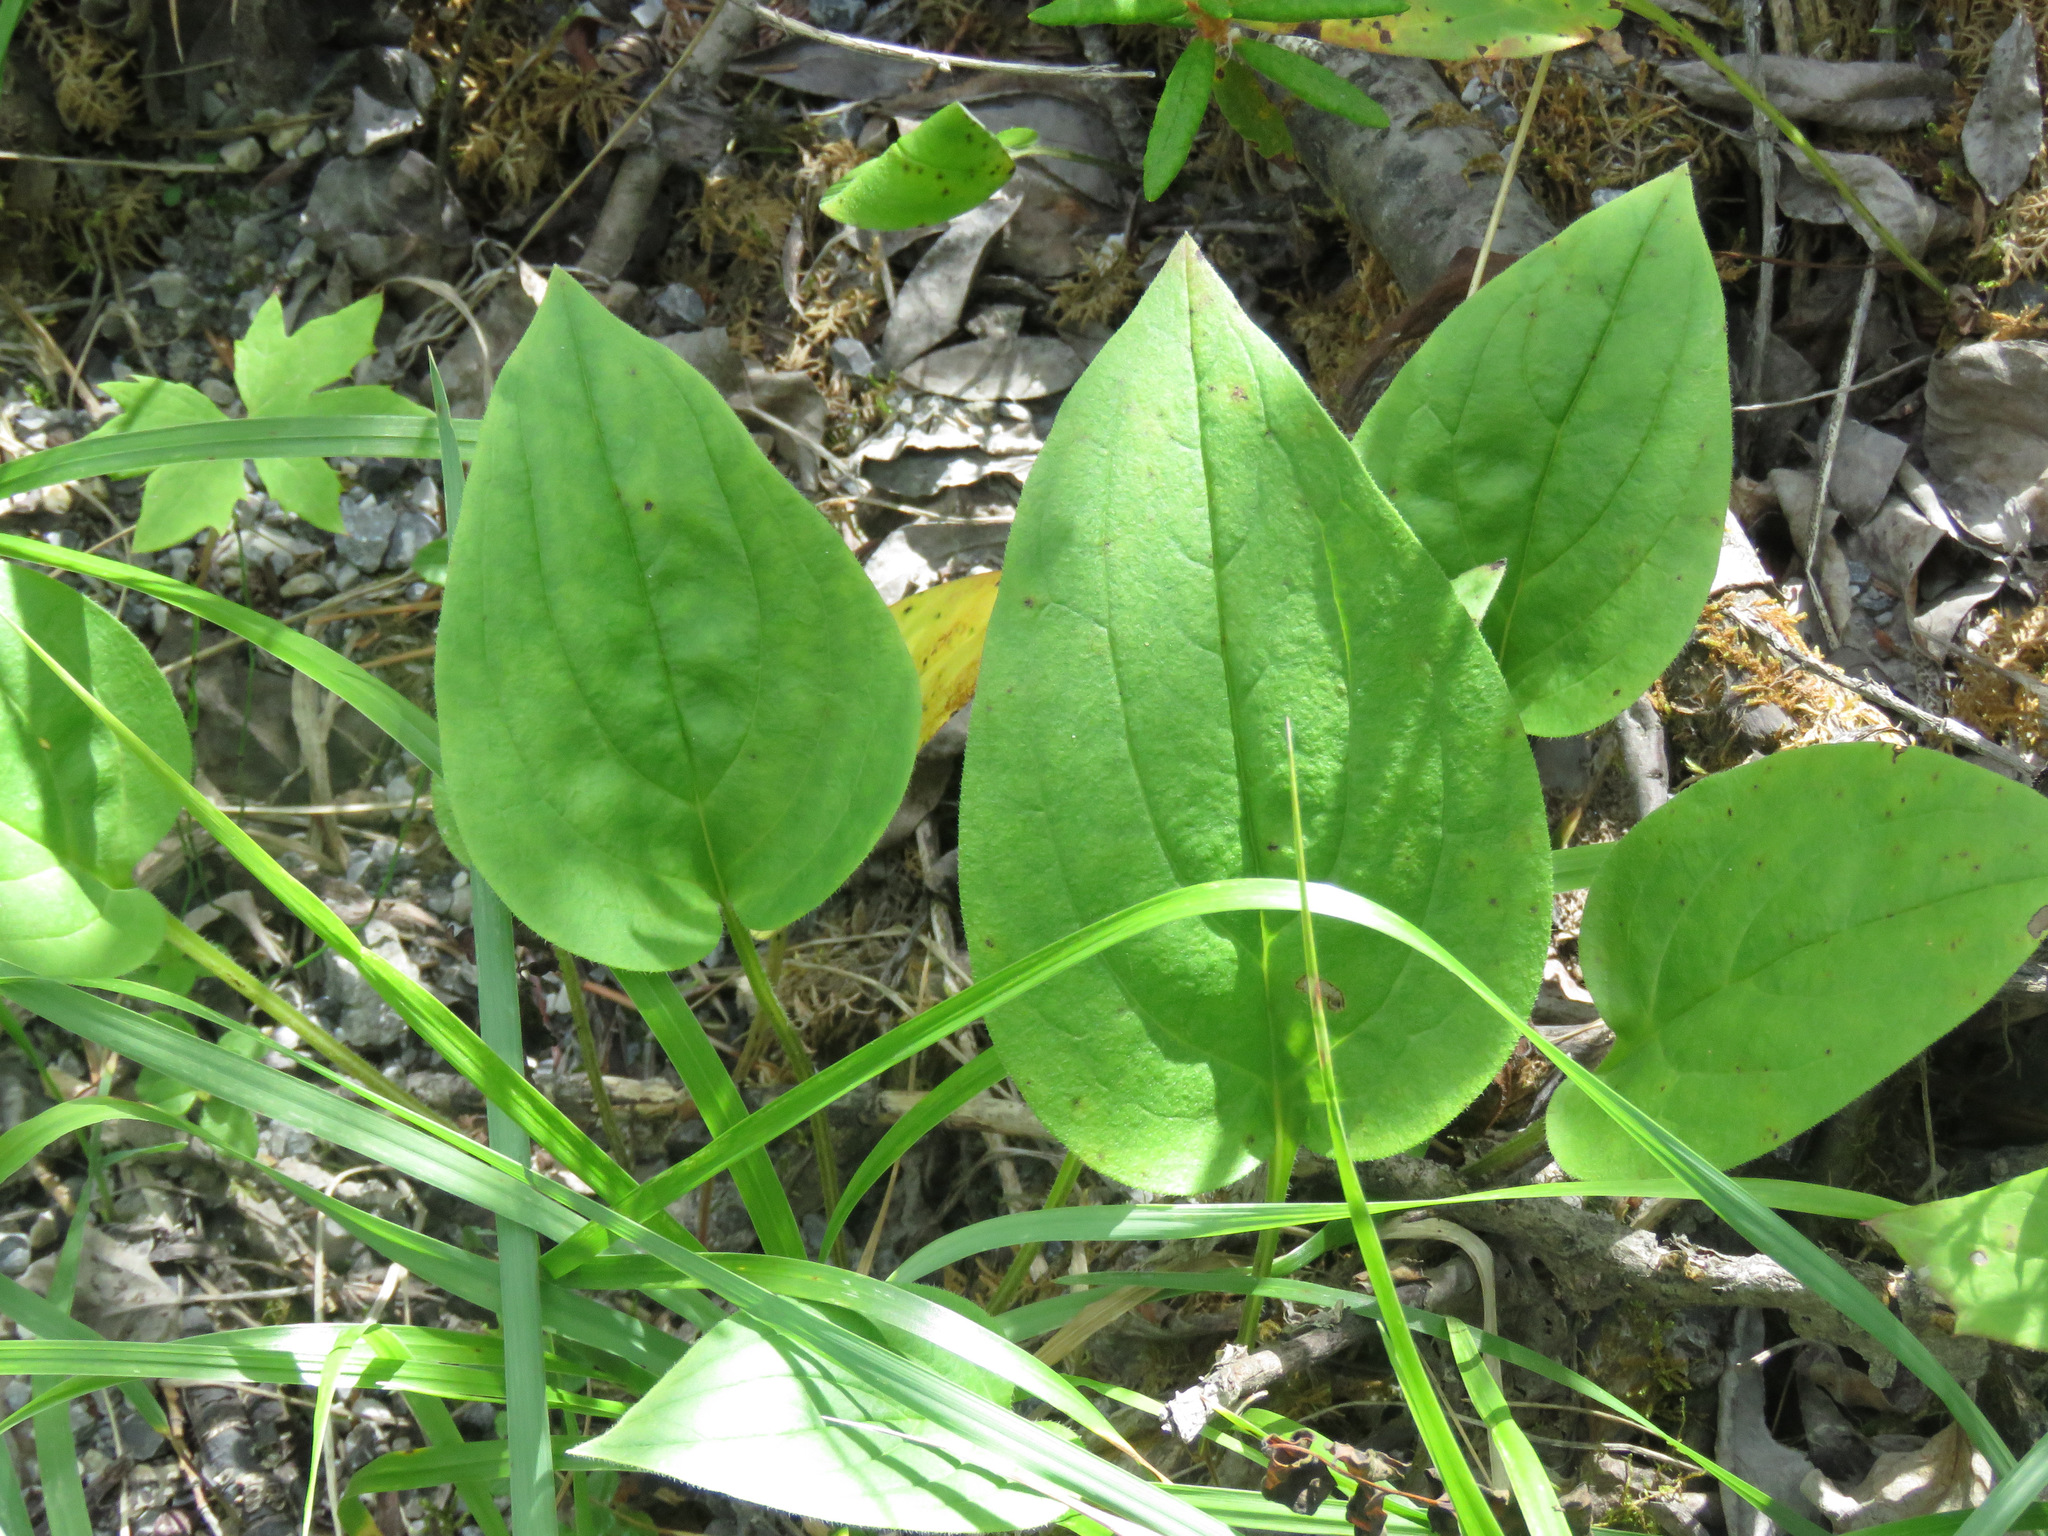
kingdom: Plantae
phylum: Tracheophyta
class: Magnoliopsida
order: Boraginales
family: Boraginaceae
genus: Mertensia
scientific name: Mertensia paniculata
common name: Panicled bluebells
